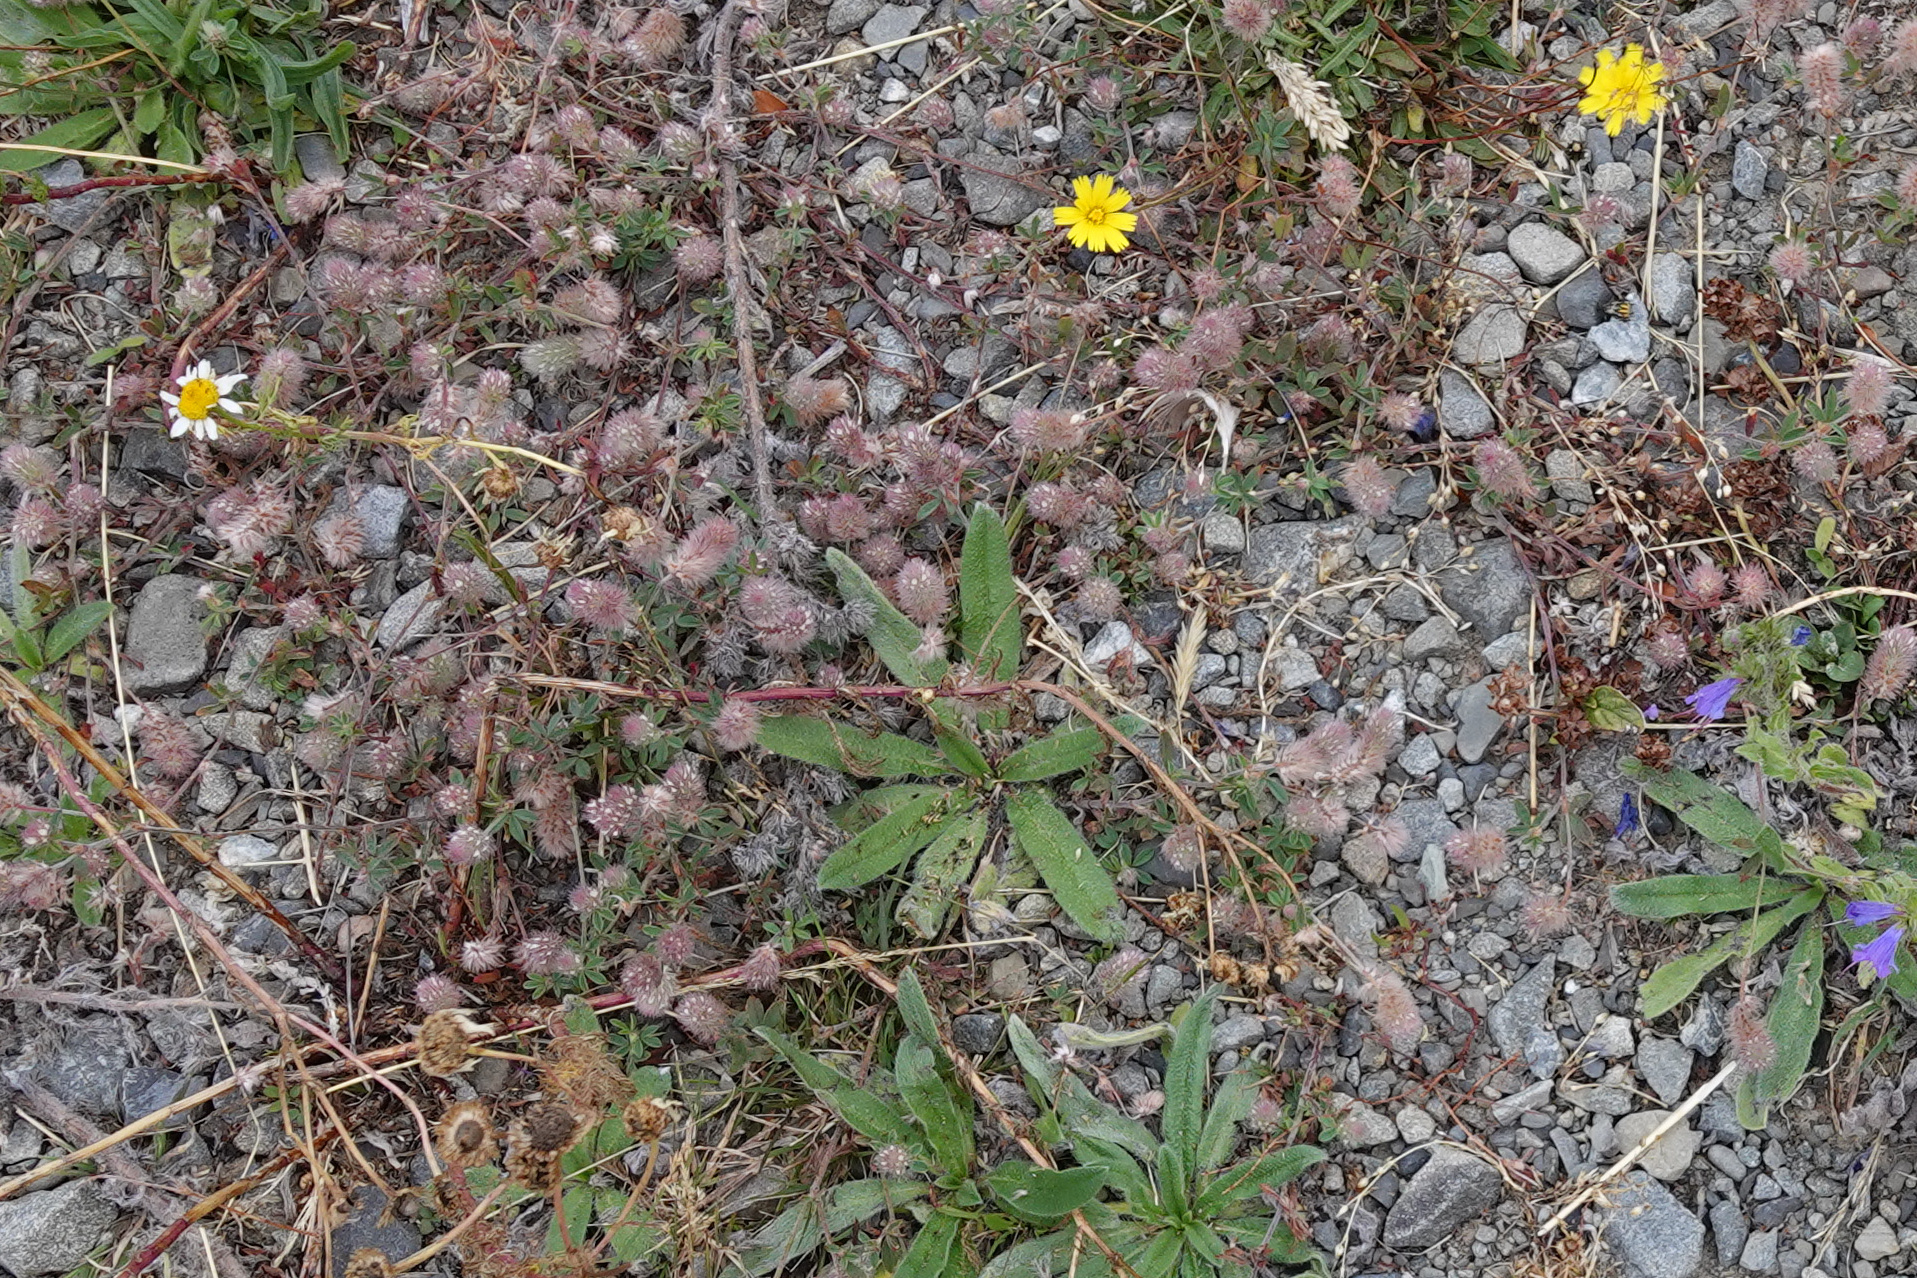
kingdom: Plantae
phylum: Tracheophyta
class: Magnoliopsida
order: Fabales
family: Fabaceae
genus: Trifolium
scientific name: Trifolium arvense
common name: Hare's-foot clover
